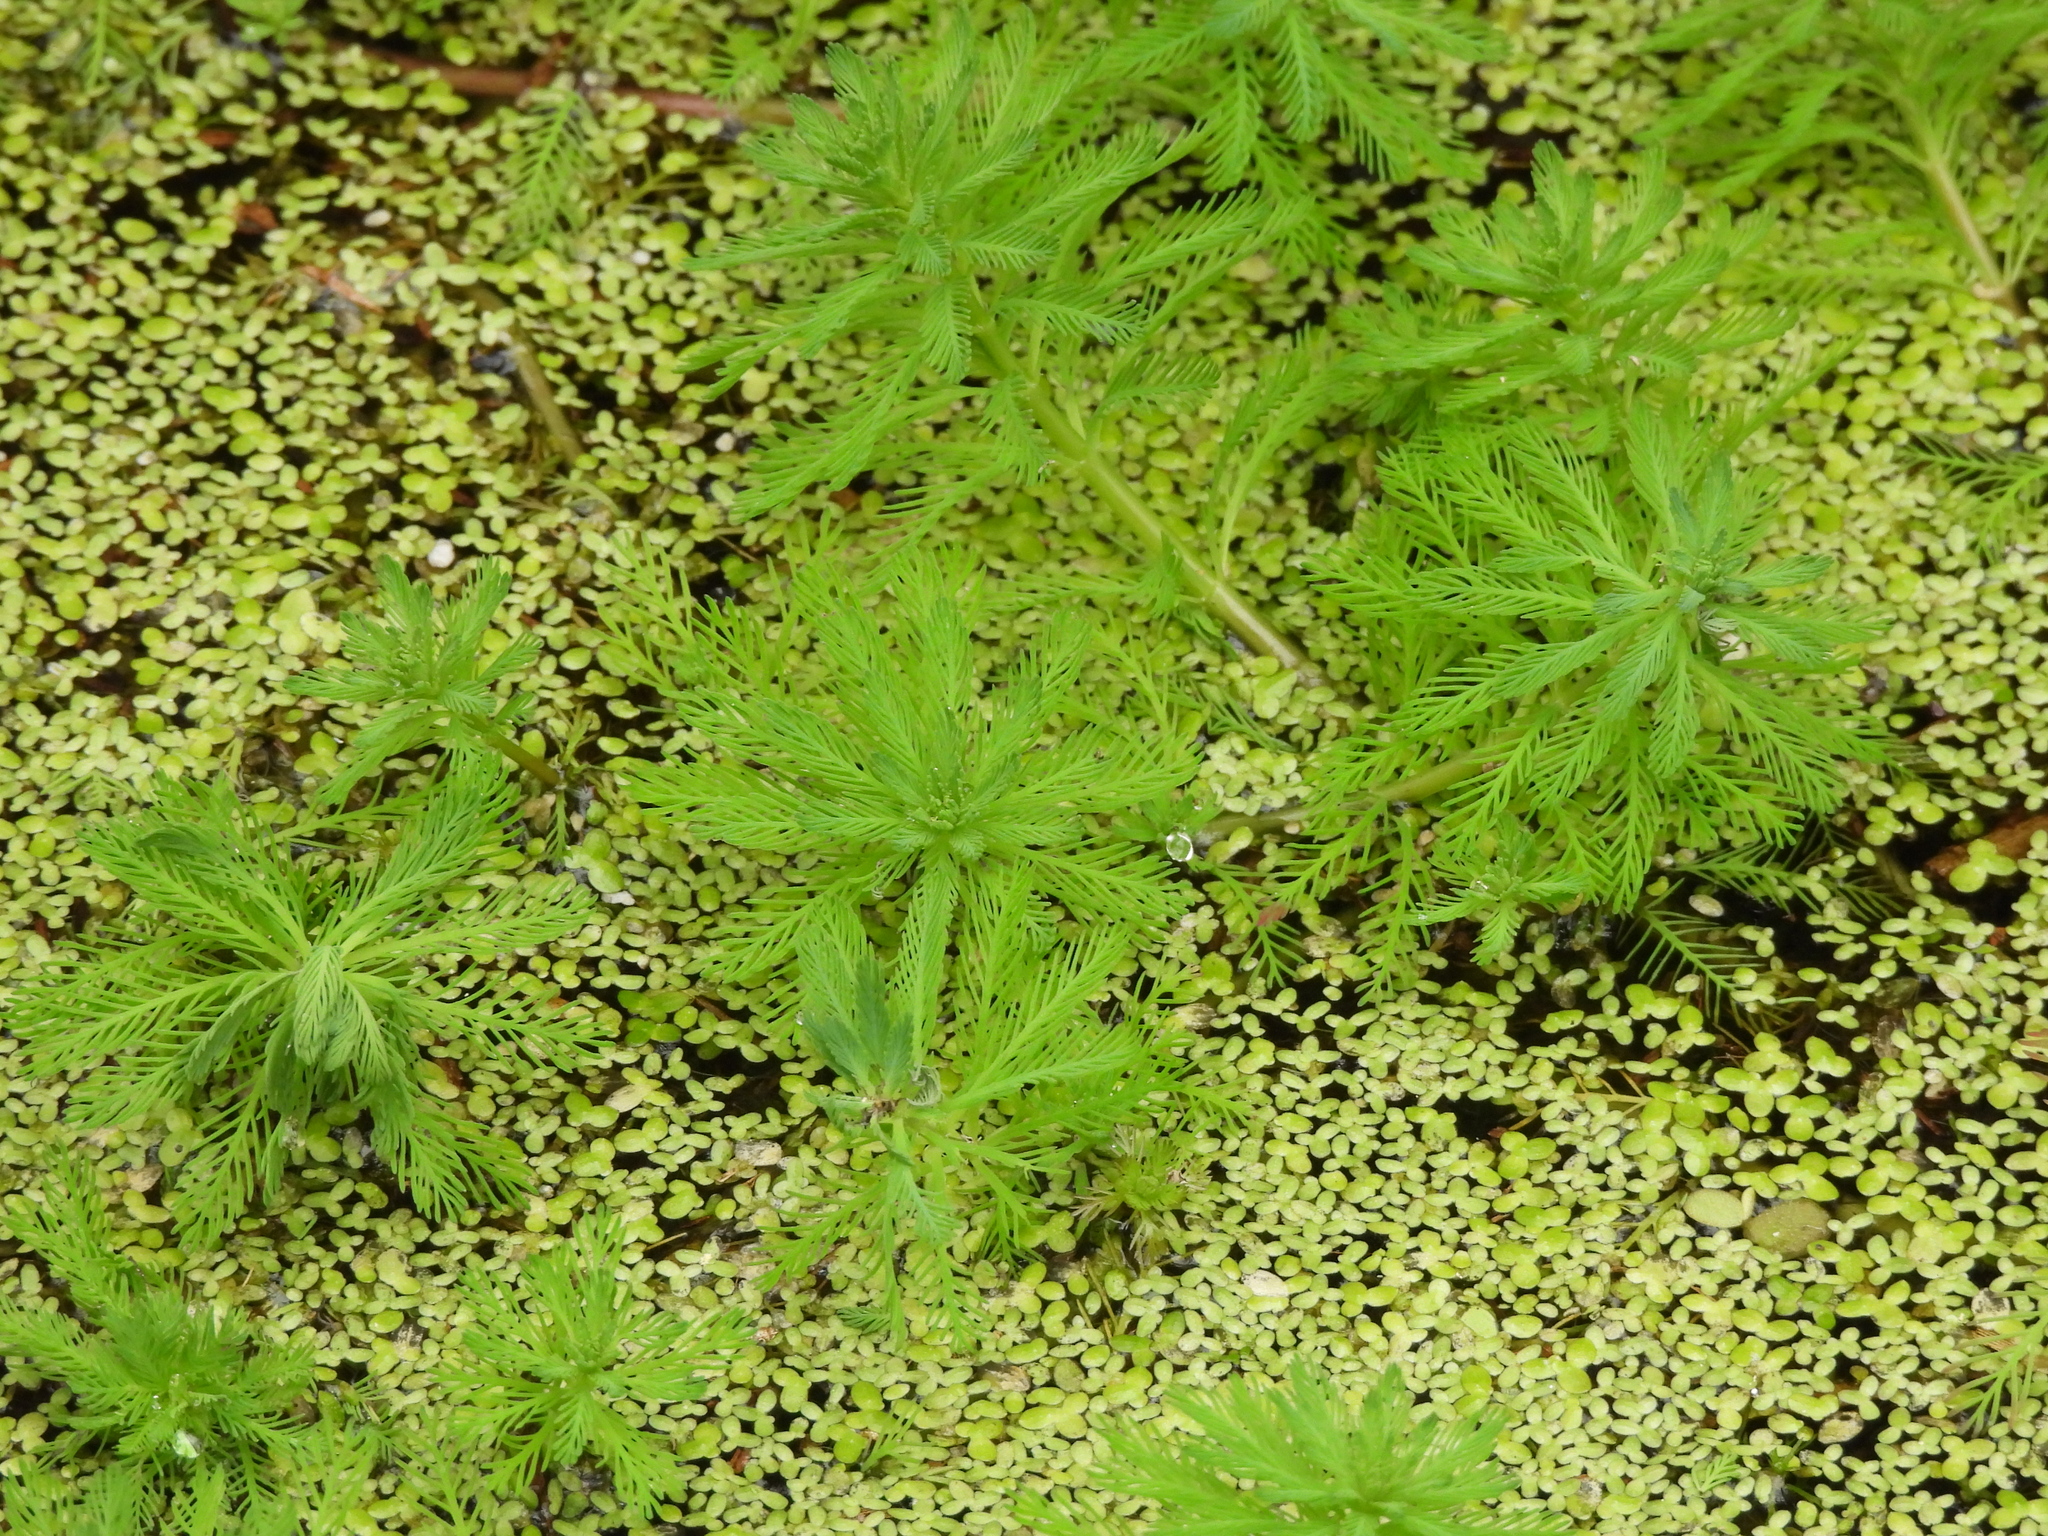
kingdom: Plantae
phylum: Tracheophyta
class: Magnoliopsida
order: Saxifragales
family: Haloragaceae
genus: Myriophyllum
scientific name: Myriophyllum aquaticum
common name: Parrot's feather
